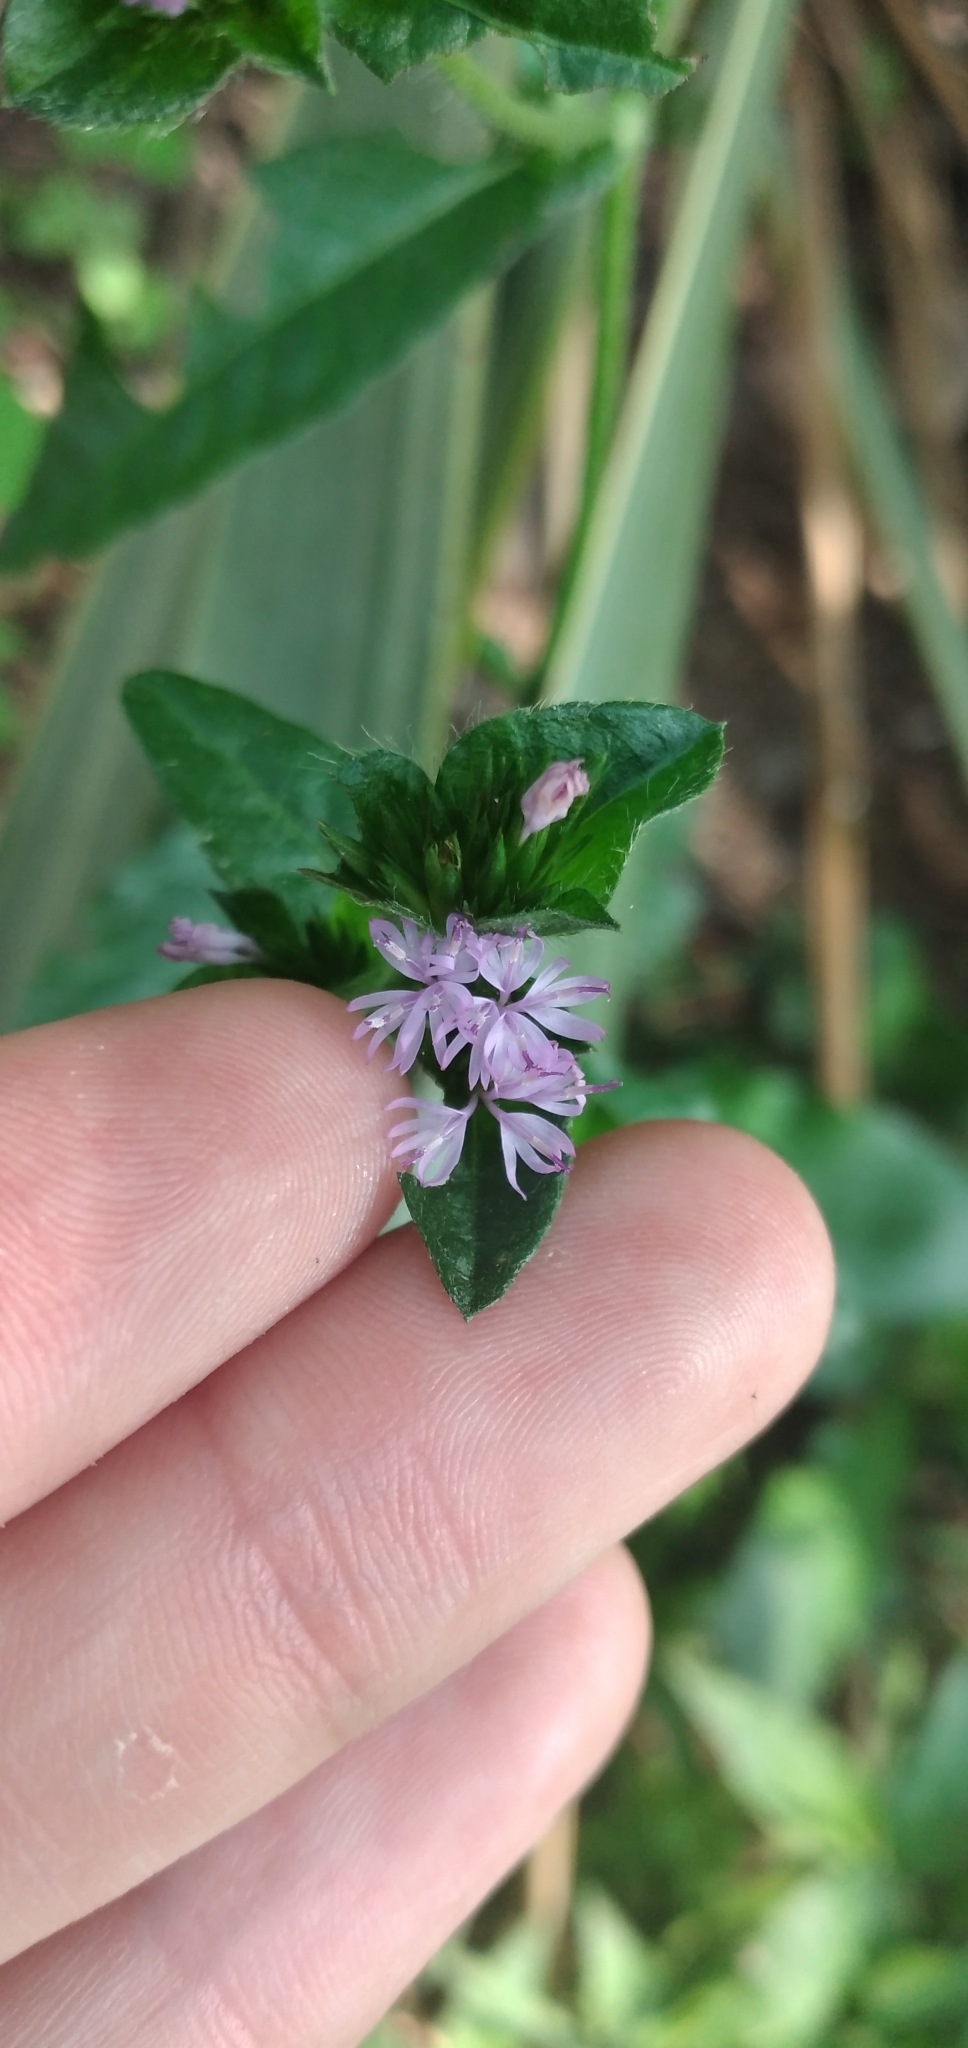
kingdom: Plantae
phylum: Tracheophyta
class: Magnoliopsida
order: Asterales
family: Asteraceae
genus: Elephantopus
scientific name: Elephantopus mollis
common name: Soft elephantsfoot
